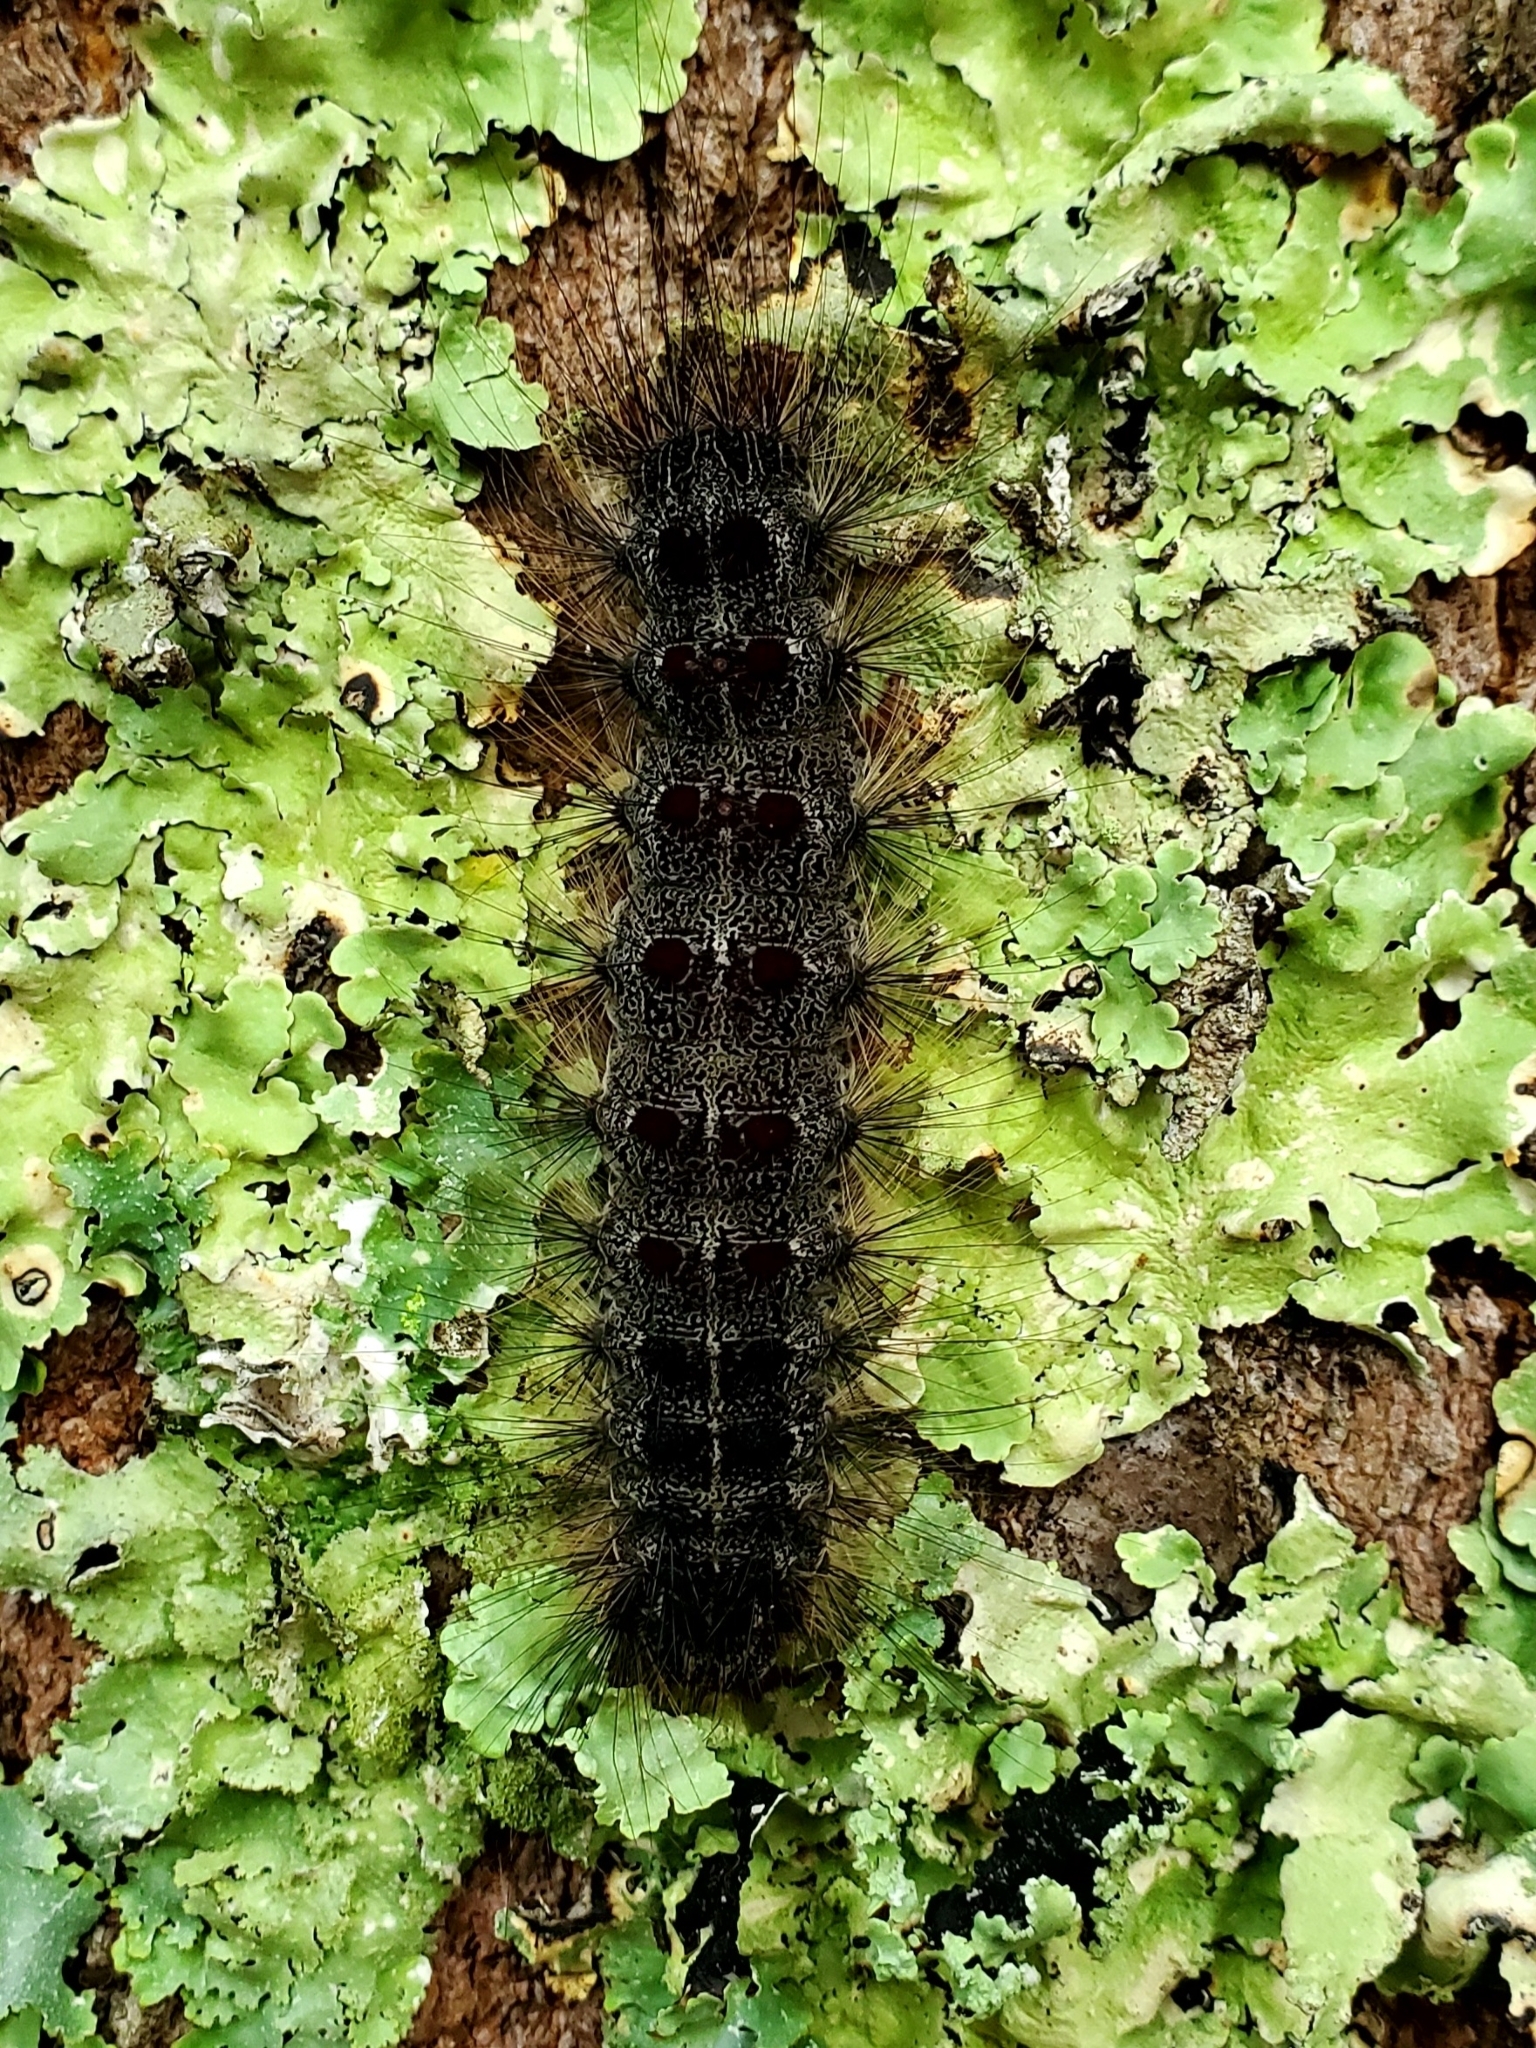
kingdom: Animalia
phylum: Arthropoda
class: Insecta
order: Lepidoptera
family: Erebidae
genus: Lymantria
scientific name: Lymantria dispar
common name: Gypsy moth
